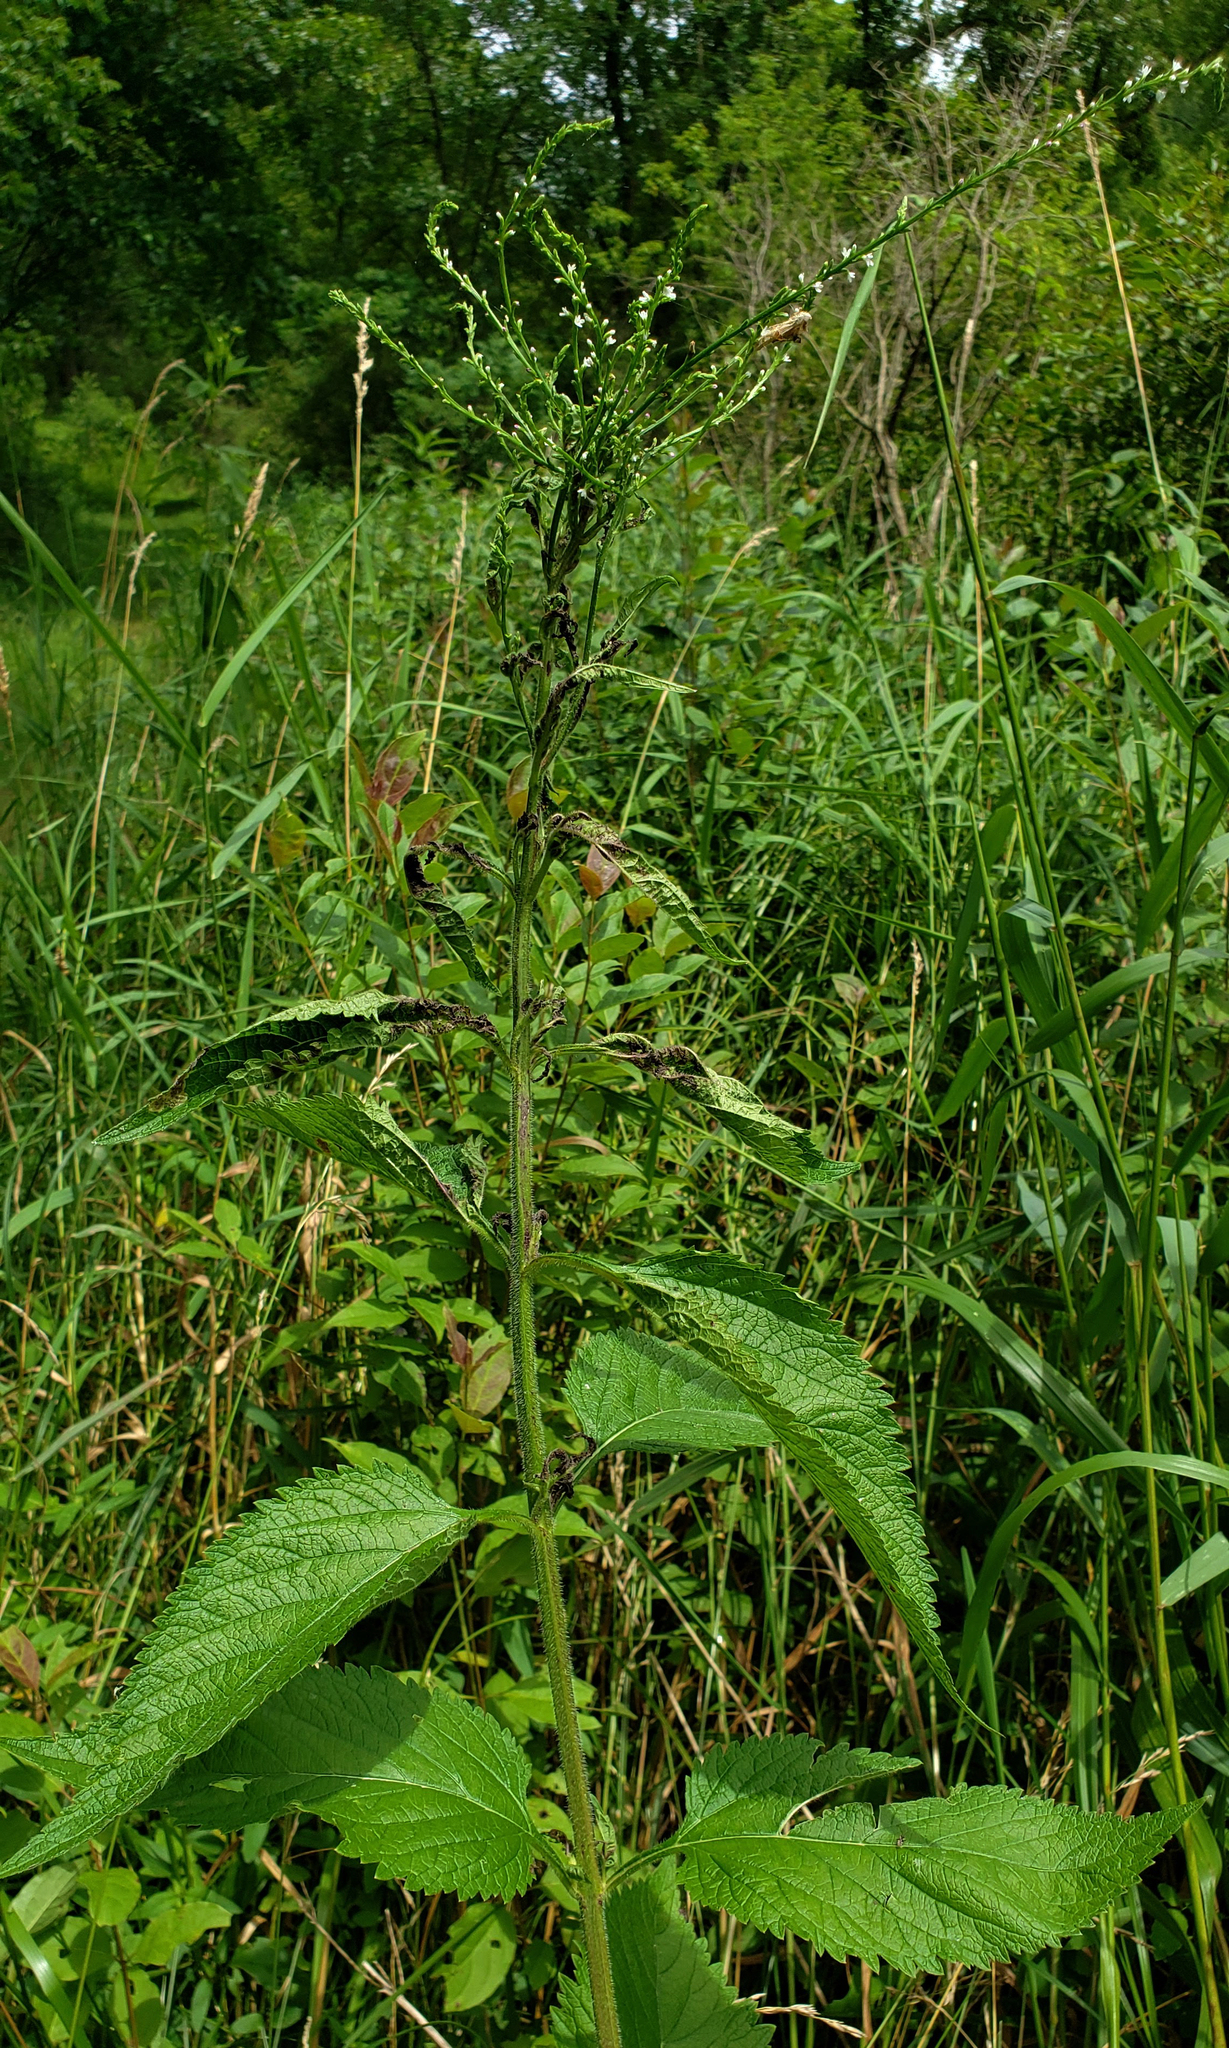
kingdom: Plantae
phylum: Tracheophyta
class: Magnoliopsida
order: Lamiales
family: Verbenaceae
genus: Verbena
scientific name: Verbena urticifolia
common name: Nettle-leaved vervain
